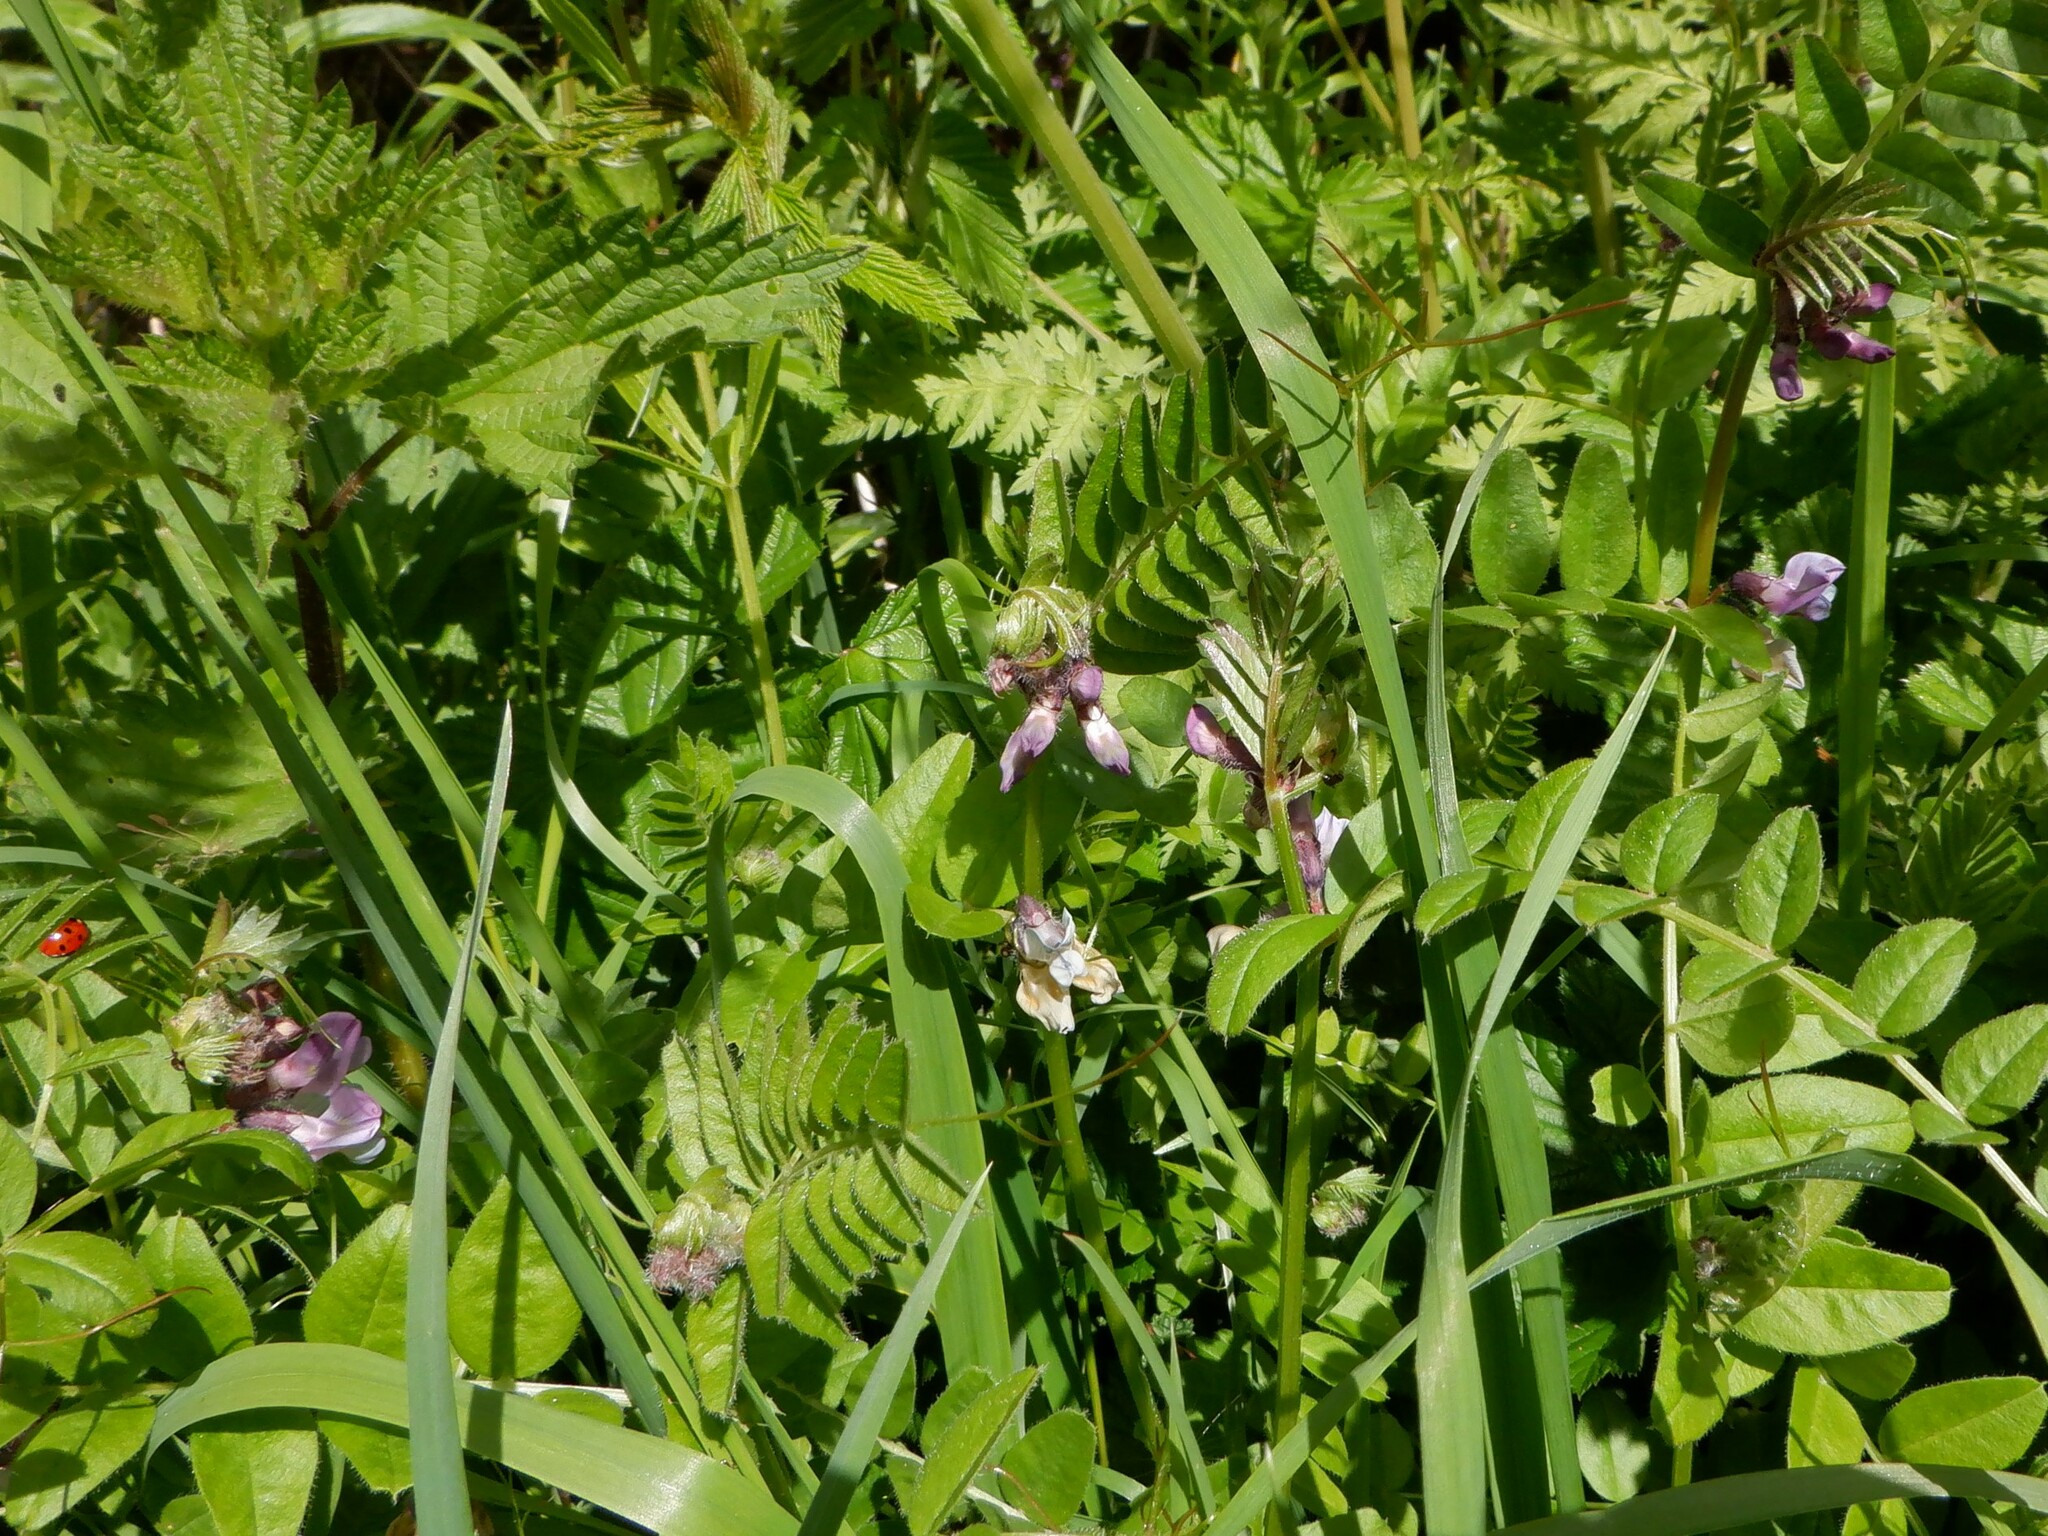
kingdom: Plantae
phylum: Tracheophyta
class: Magnoliopsida
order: Fabales
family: Fabaceae
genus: Vicia
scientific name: Vicia sepium
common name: Bush vetch
